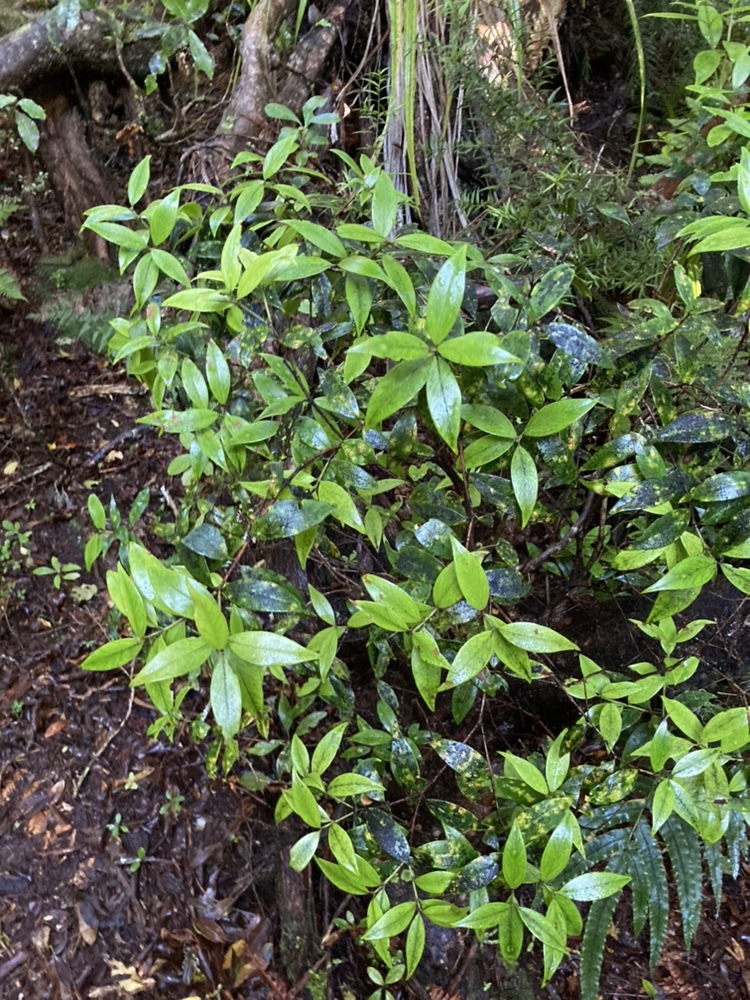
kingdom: Plantae
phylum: Tracheophyta
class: Magnoliopsida
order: Myrtales
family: Myrtaceae
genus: Metrosideros
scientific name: Metrosideros umbellata
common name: Southern rata
